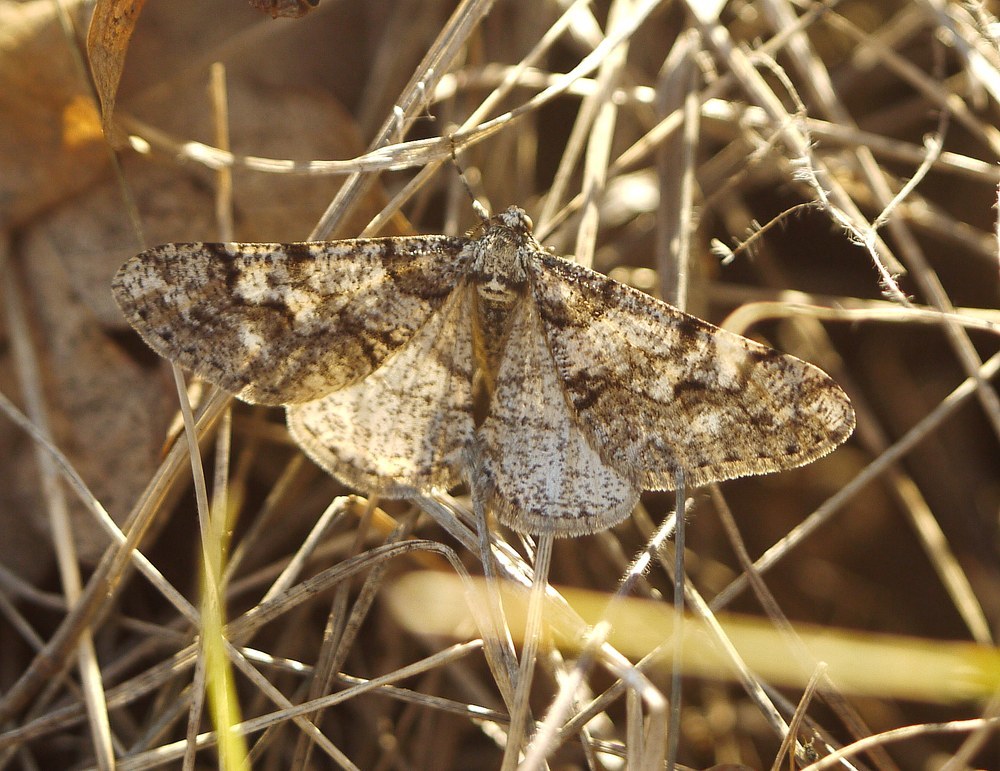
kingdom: Animalia
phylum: Arthropoda
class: Insecta
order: Lepidoptera
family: Geometridae
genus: Agriopis
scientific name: Agriopis leucophaearia
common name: Spring usher
